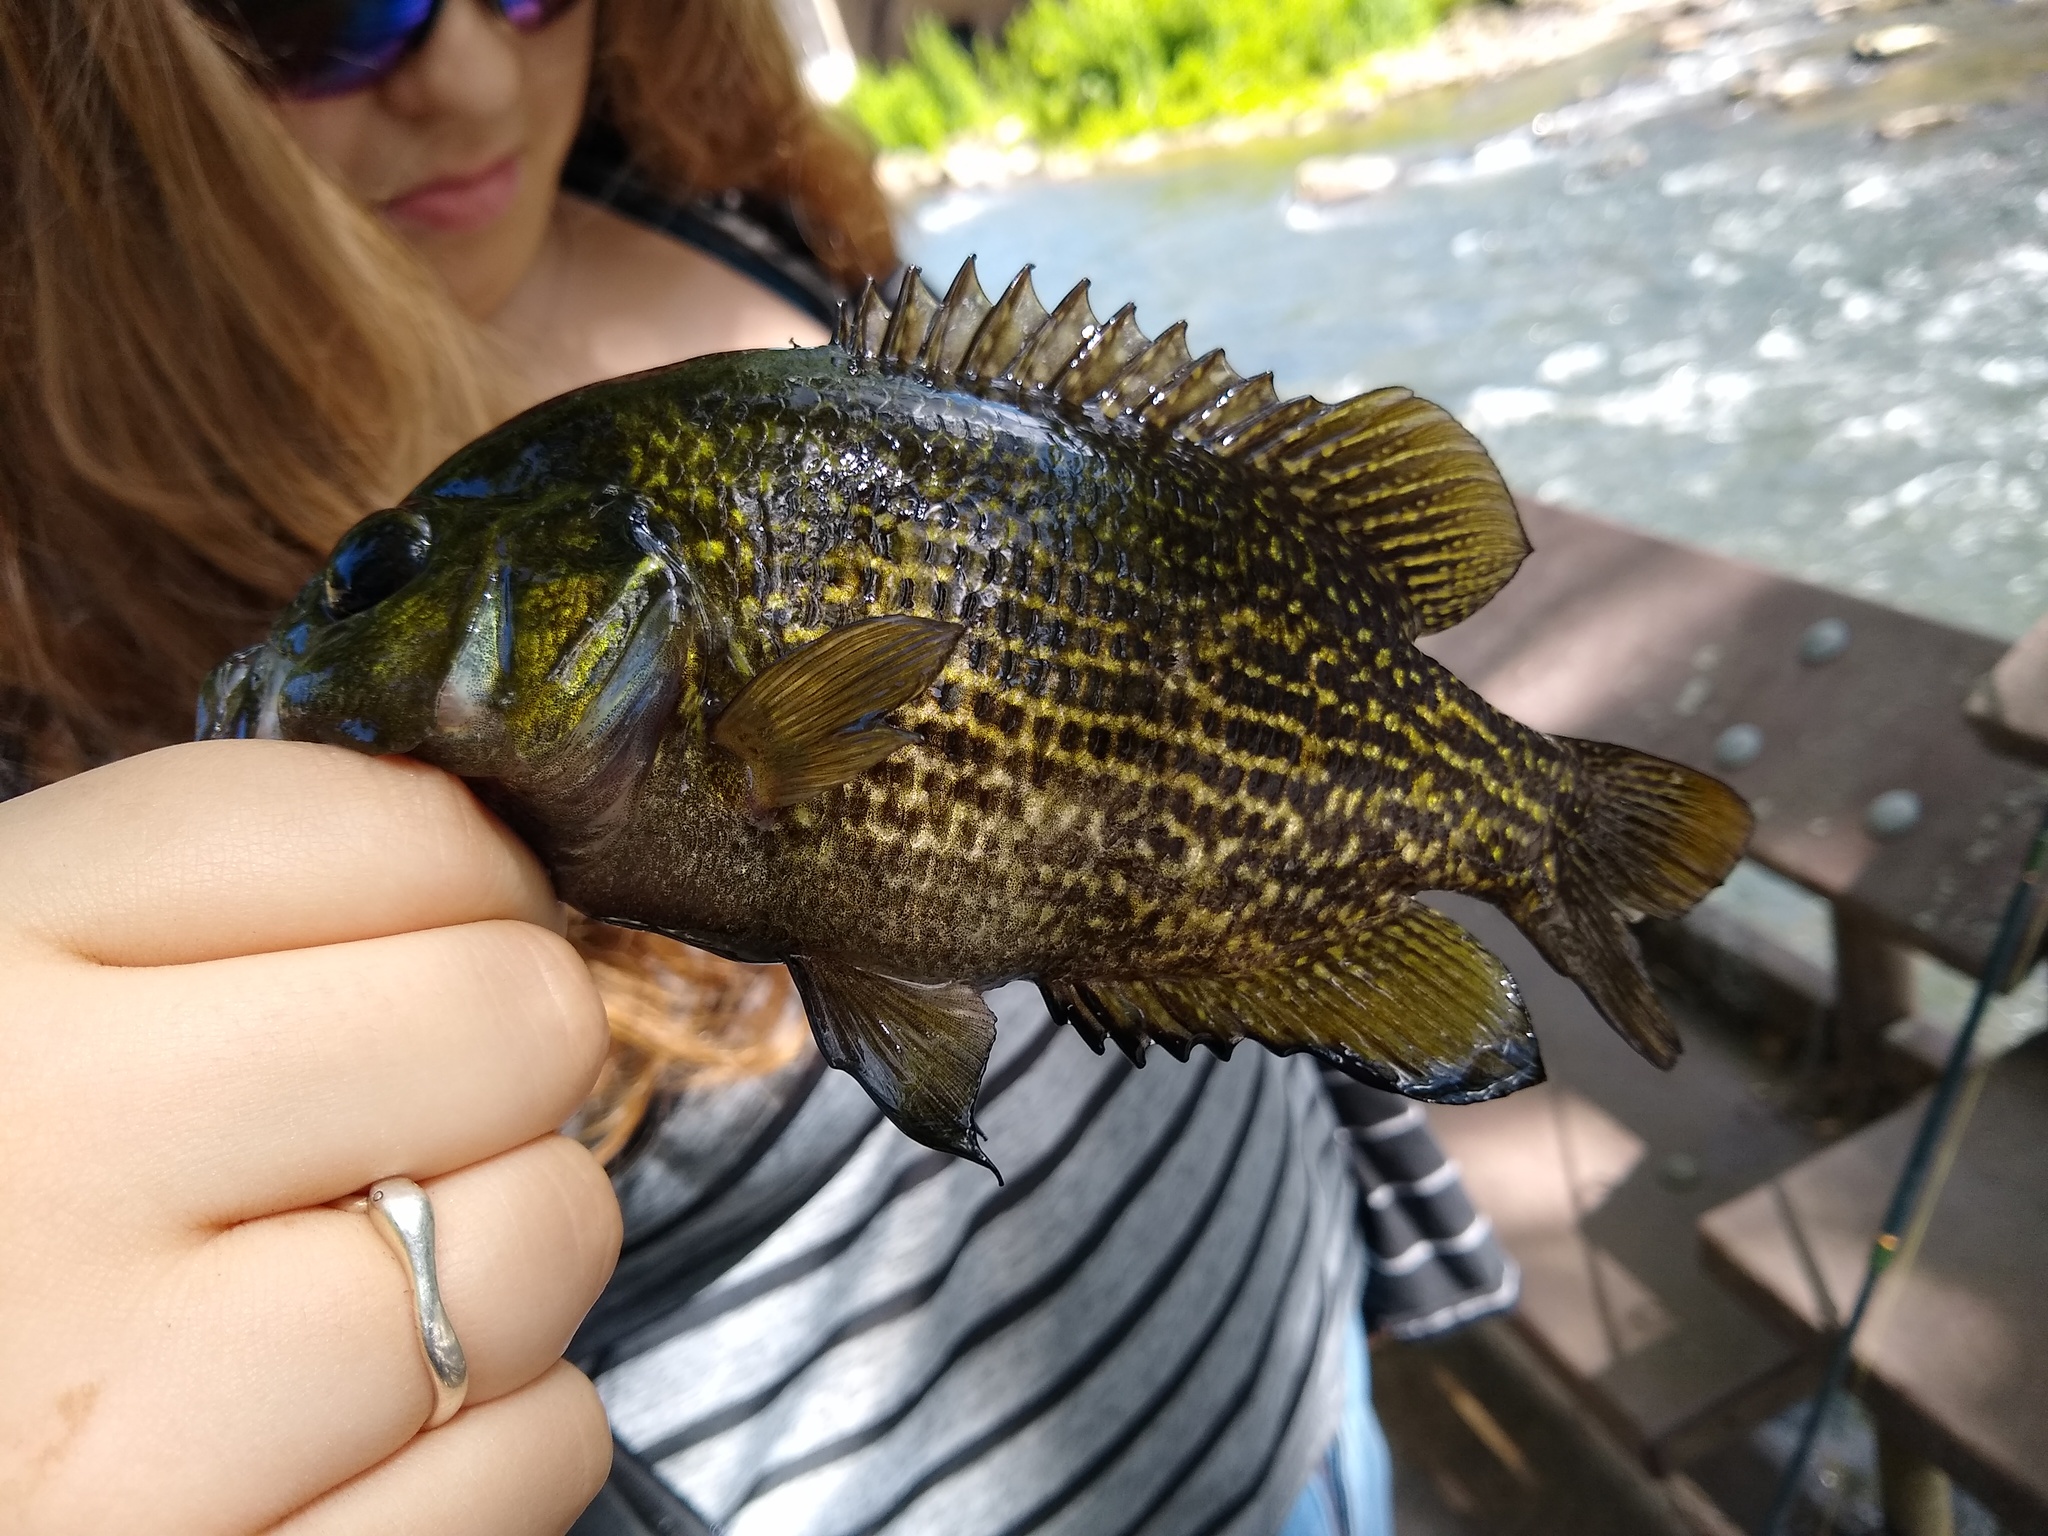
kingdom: Animalia
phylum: Chordata
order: Perciformes
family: Centrarchidae
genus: Ambloplites
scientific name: Ambloplites rupestris
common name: Rock bass
